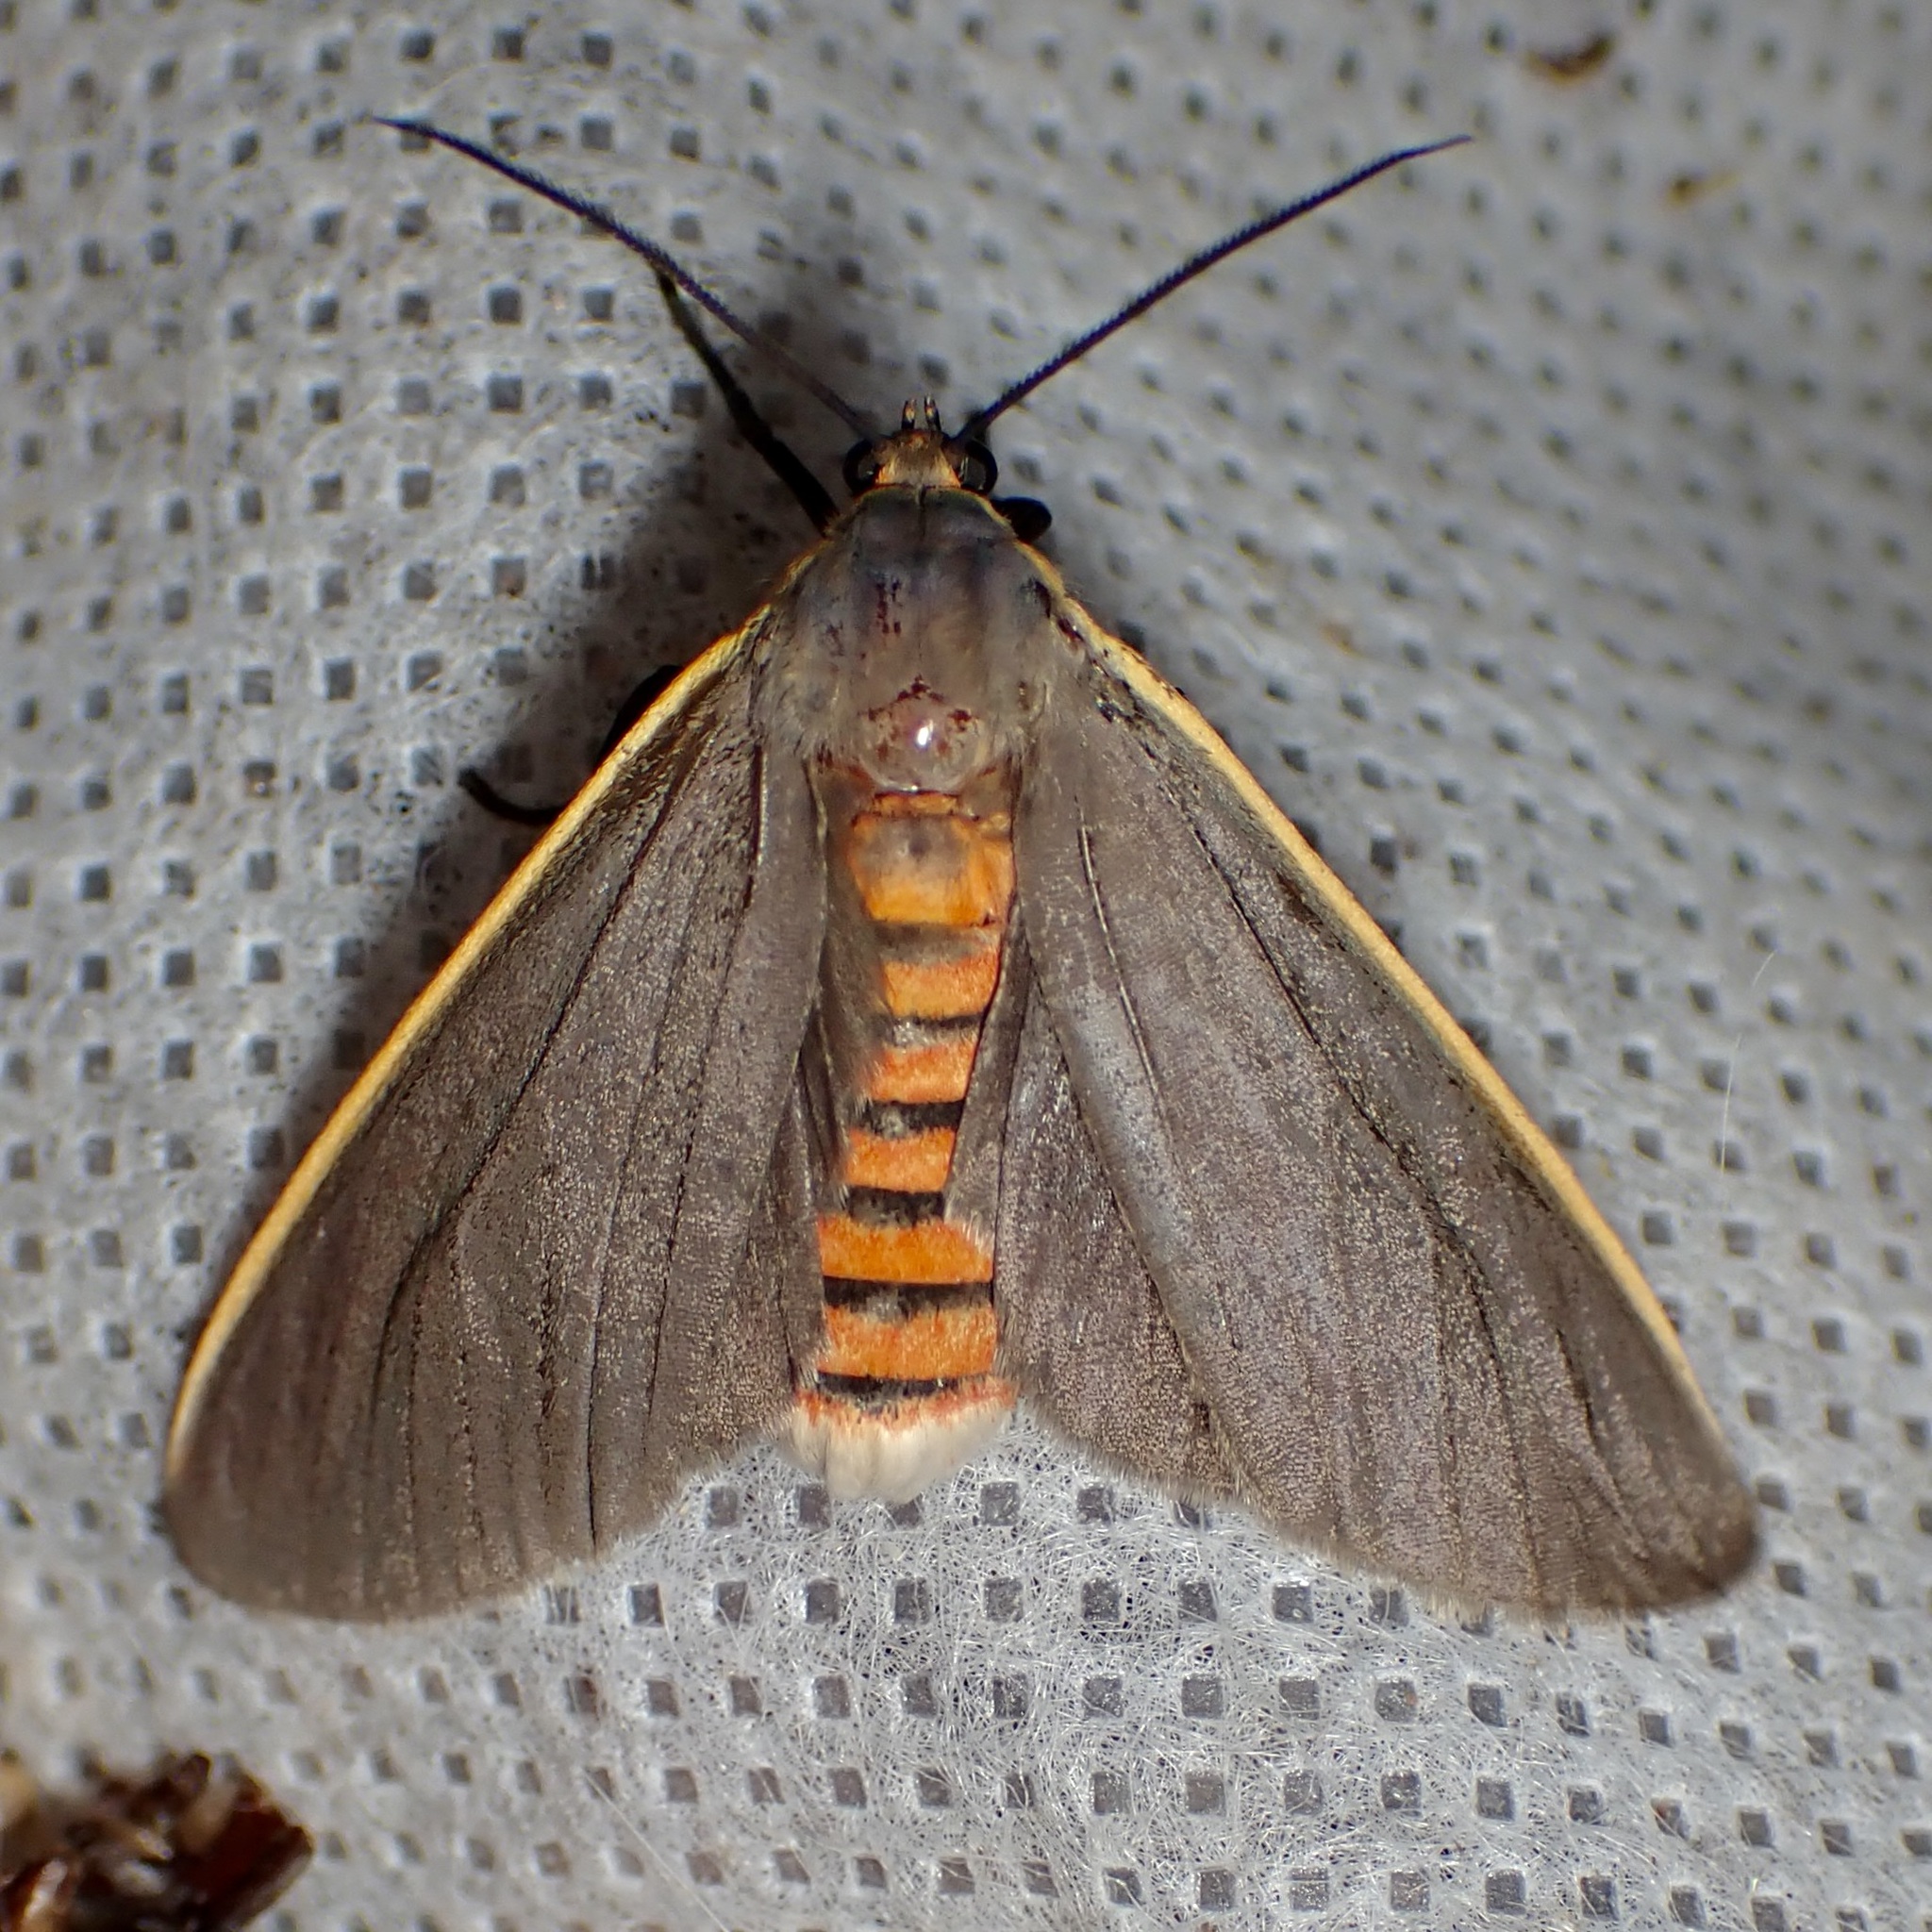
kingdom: Animalia
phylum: Arthropoda
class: Insecta
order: Lepidoptera
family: Erebidae
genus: Euchaetes
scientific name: Euchaetes antica
